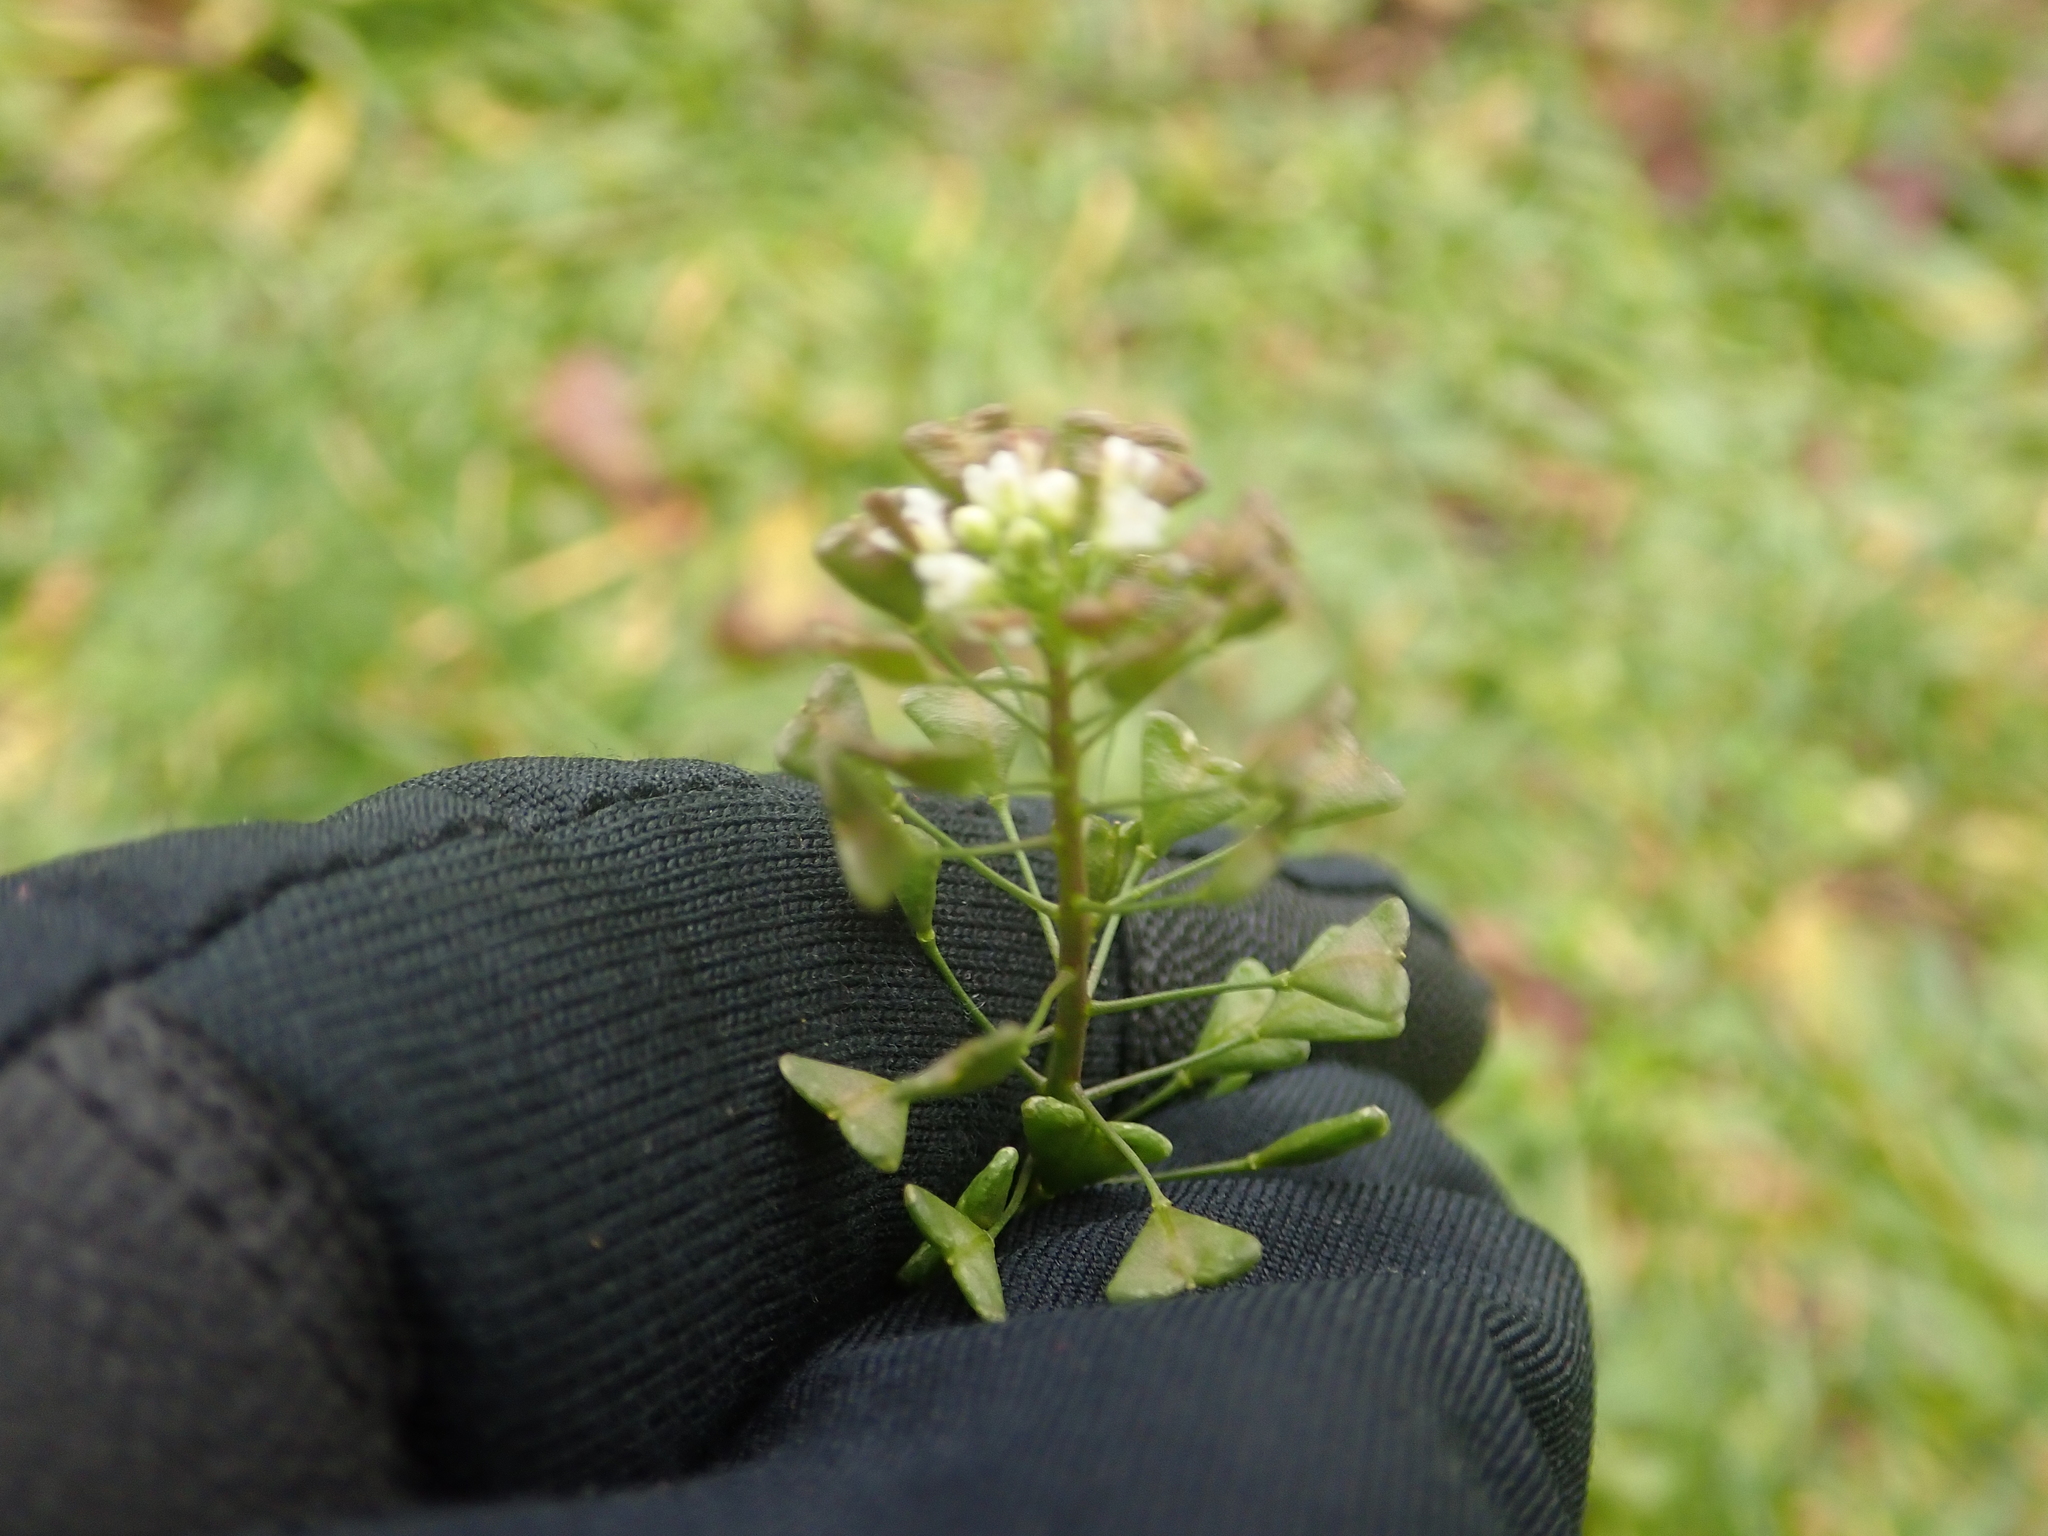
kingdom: Plantae
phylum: Tracheophyta
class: Magnoliopsida
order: Brassicales
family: Brassicaceae
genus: Capsella
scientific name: Capsella bursa-pastoris
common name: Shepherd's purse
